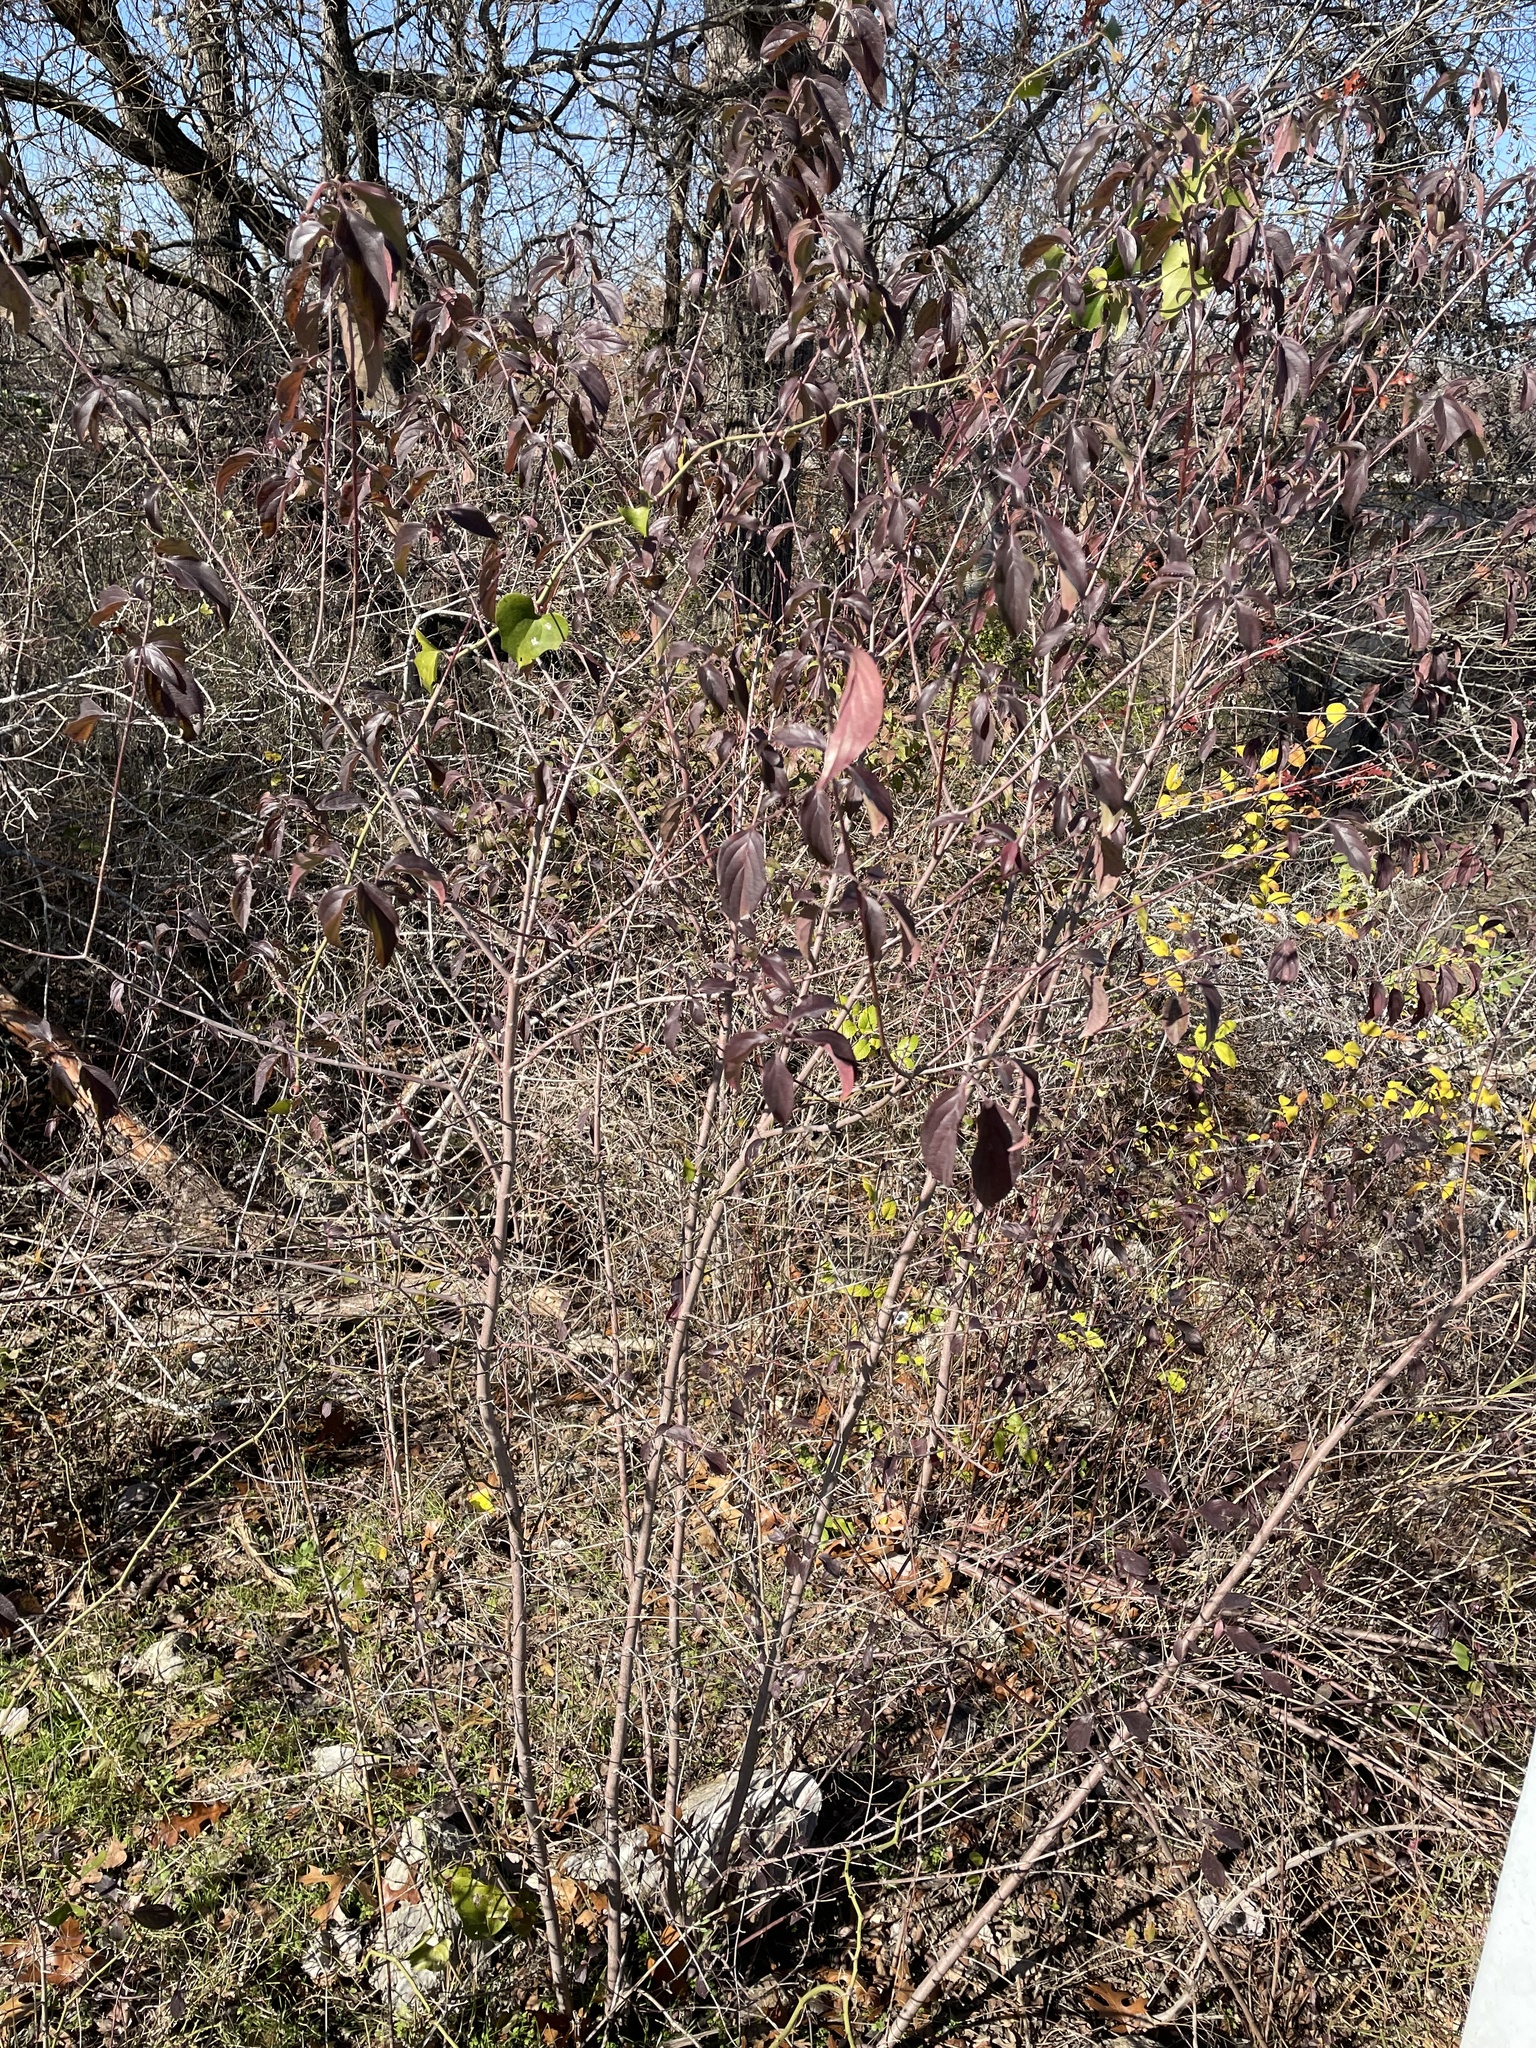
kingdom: Plantae
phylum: Tracheophyta
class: Magnoliopsida
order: Cornales
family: Cornaceae
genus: Cornus
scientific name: Cornus drummondii
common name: Rough-leaf dogwood
